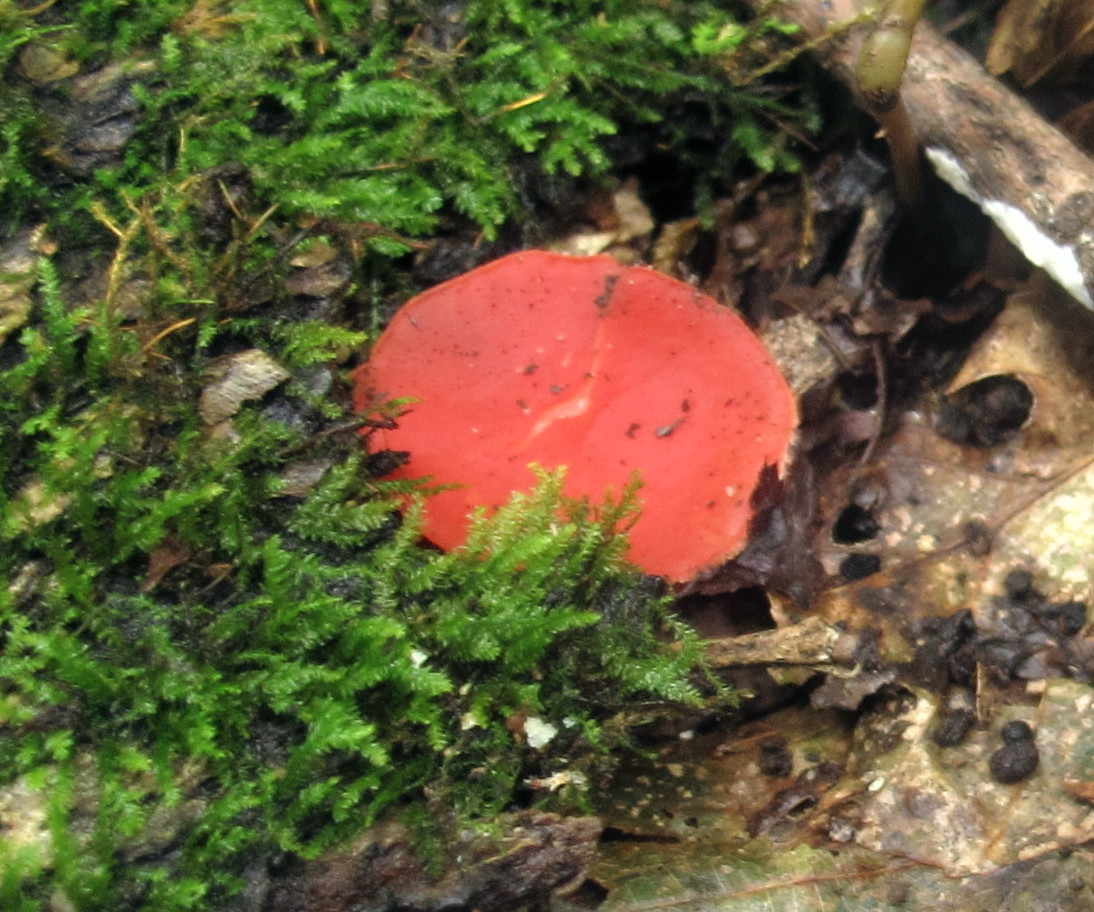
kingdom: Fungi
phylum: Ascomycota
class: Pezizomycetes
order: Pezizales
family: Sarcoscyphaceae
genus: Sarcoscypha
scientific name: Sarcoscypha occidentalis
